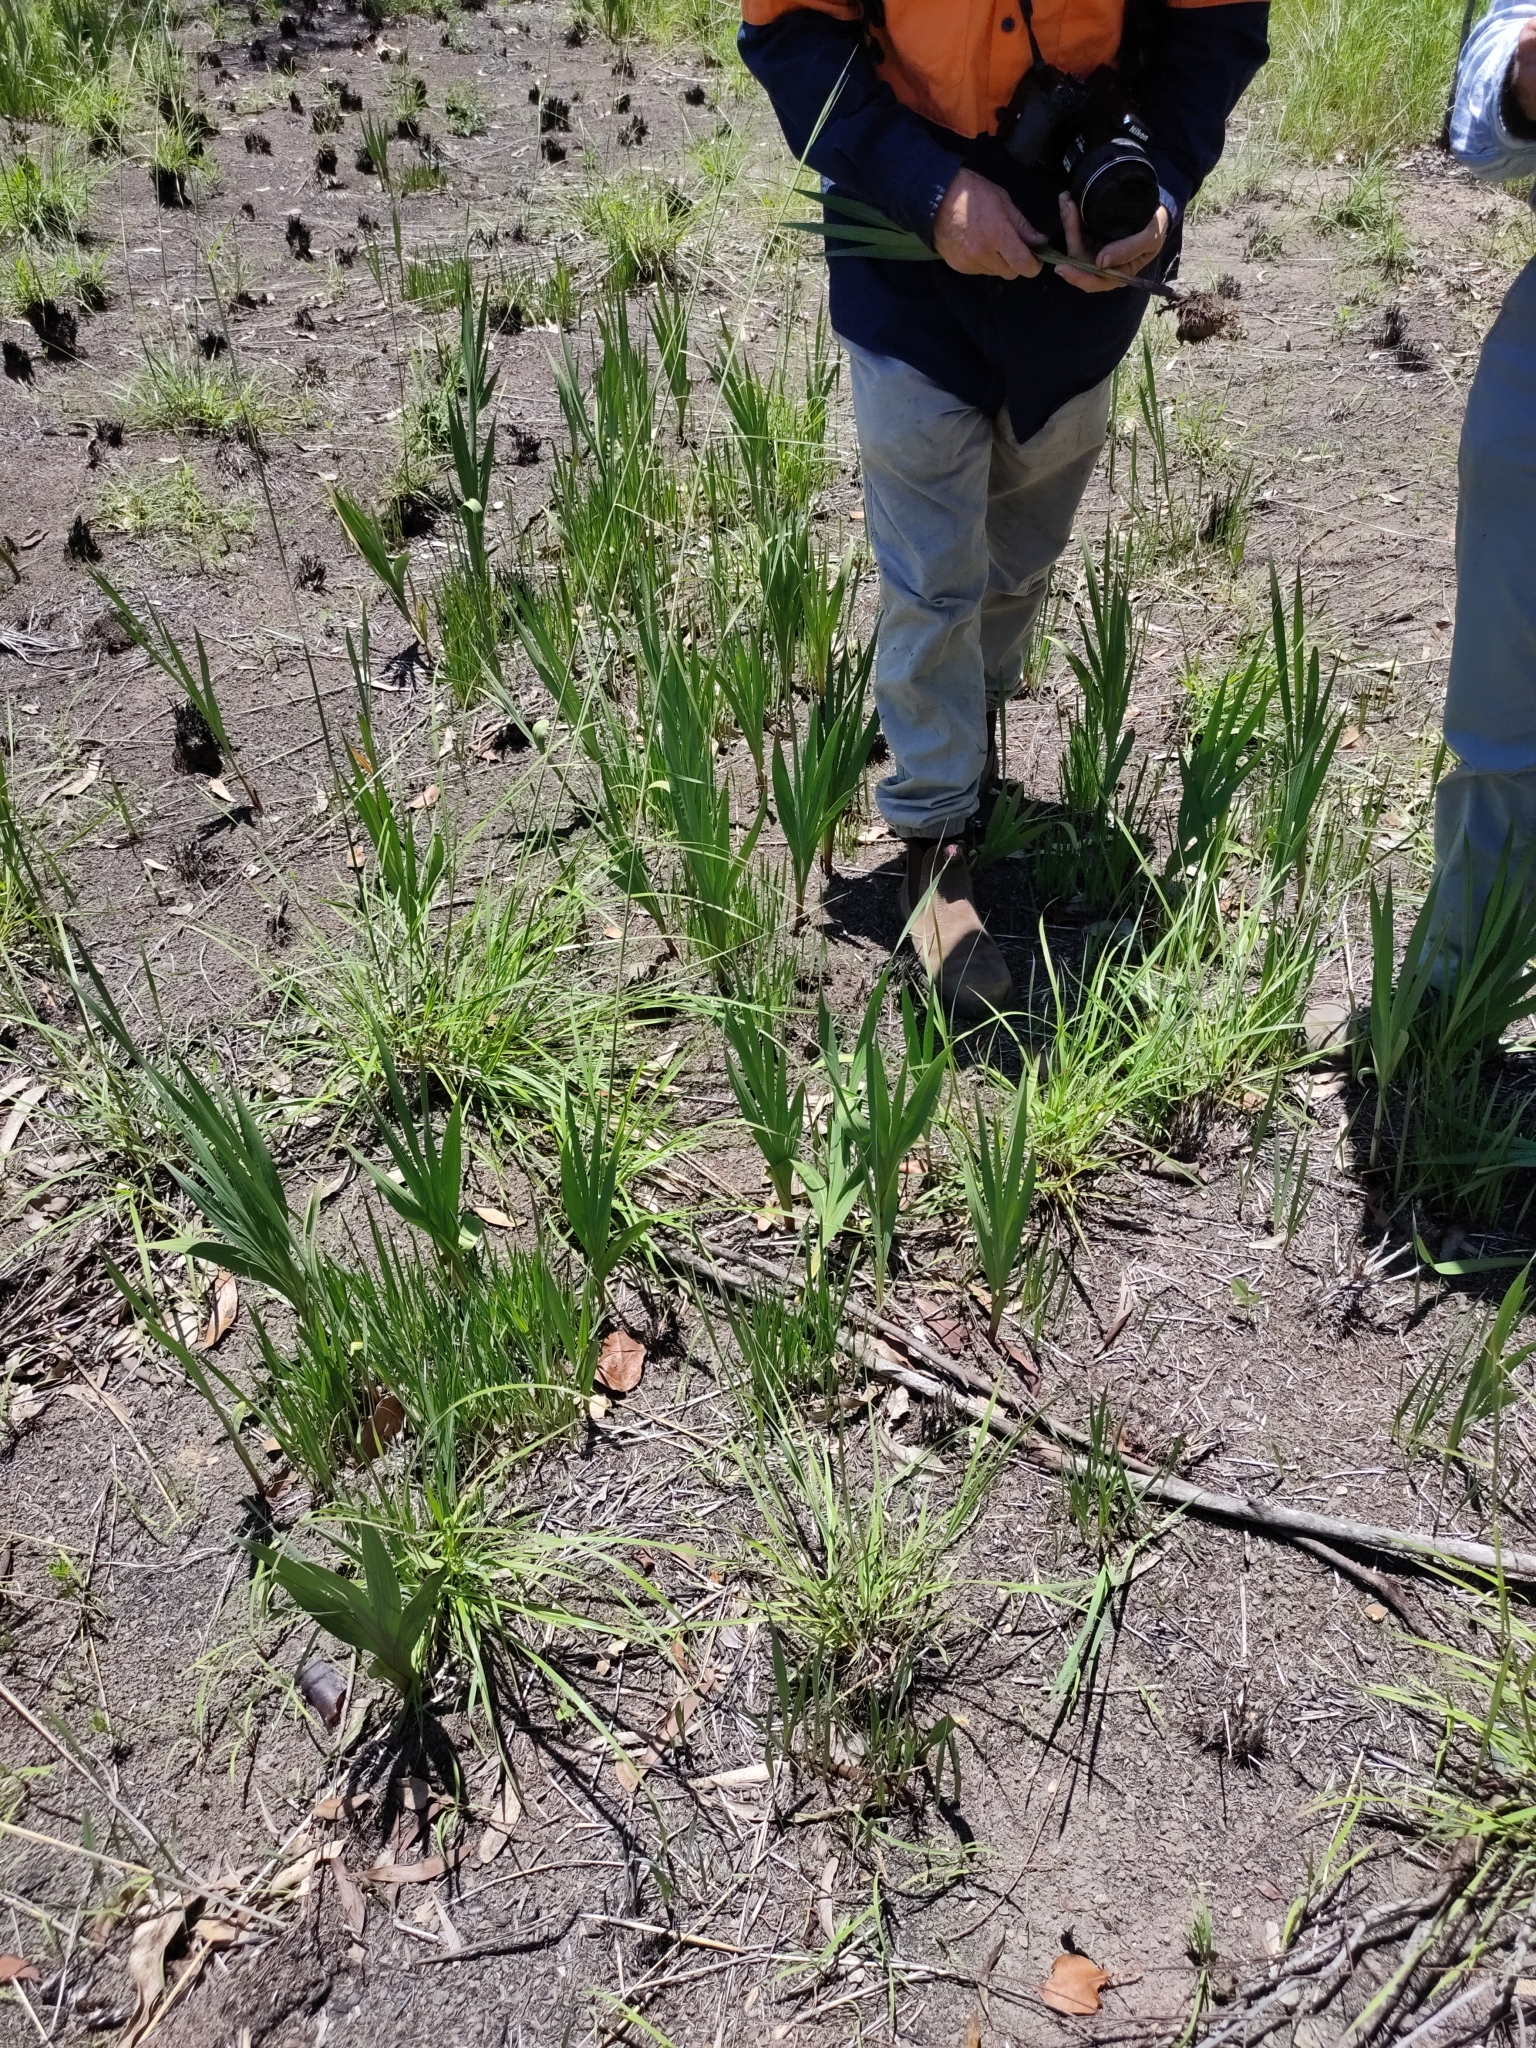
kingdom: Plantae
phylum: Tracheophyta
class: Liliopsida
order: Asparagales
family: Iridaceae
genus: Gladiolus
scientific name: Gladiolus dalenii
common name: Cornflag
